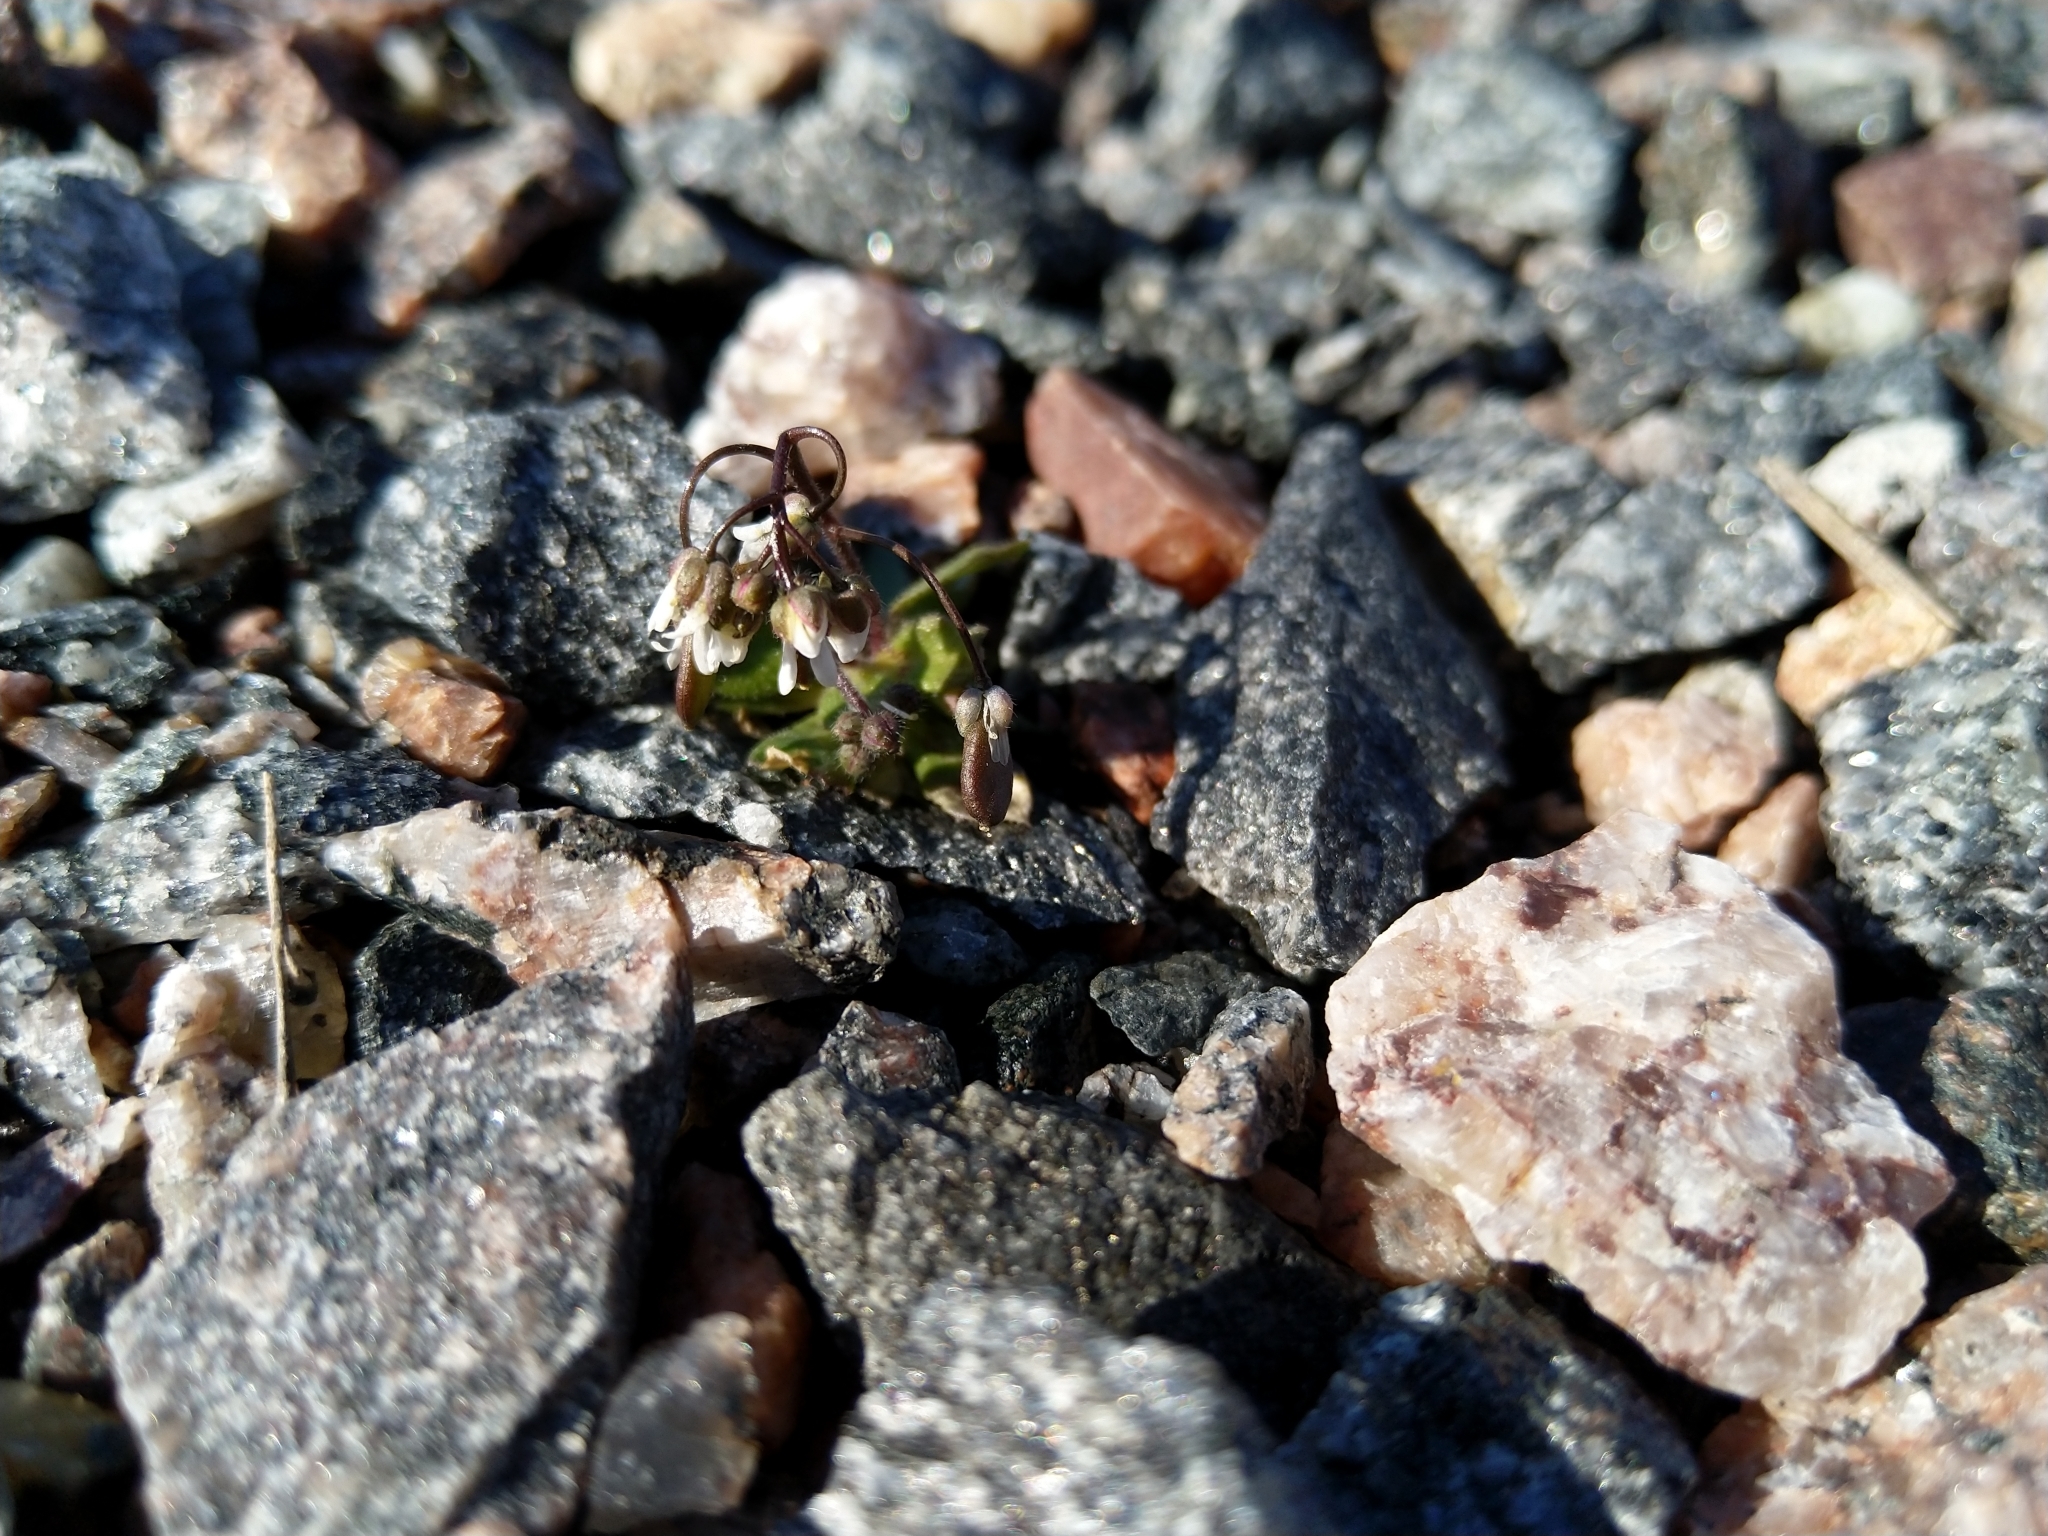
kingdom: Plantae
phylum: Tracheophyta
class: Magnoliopsida
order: Brassicales
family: Brassicaceae
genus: Draba
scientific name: Draba verna
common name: Spring draba
